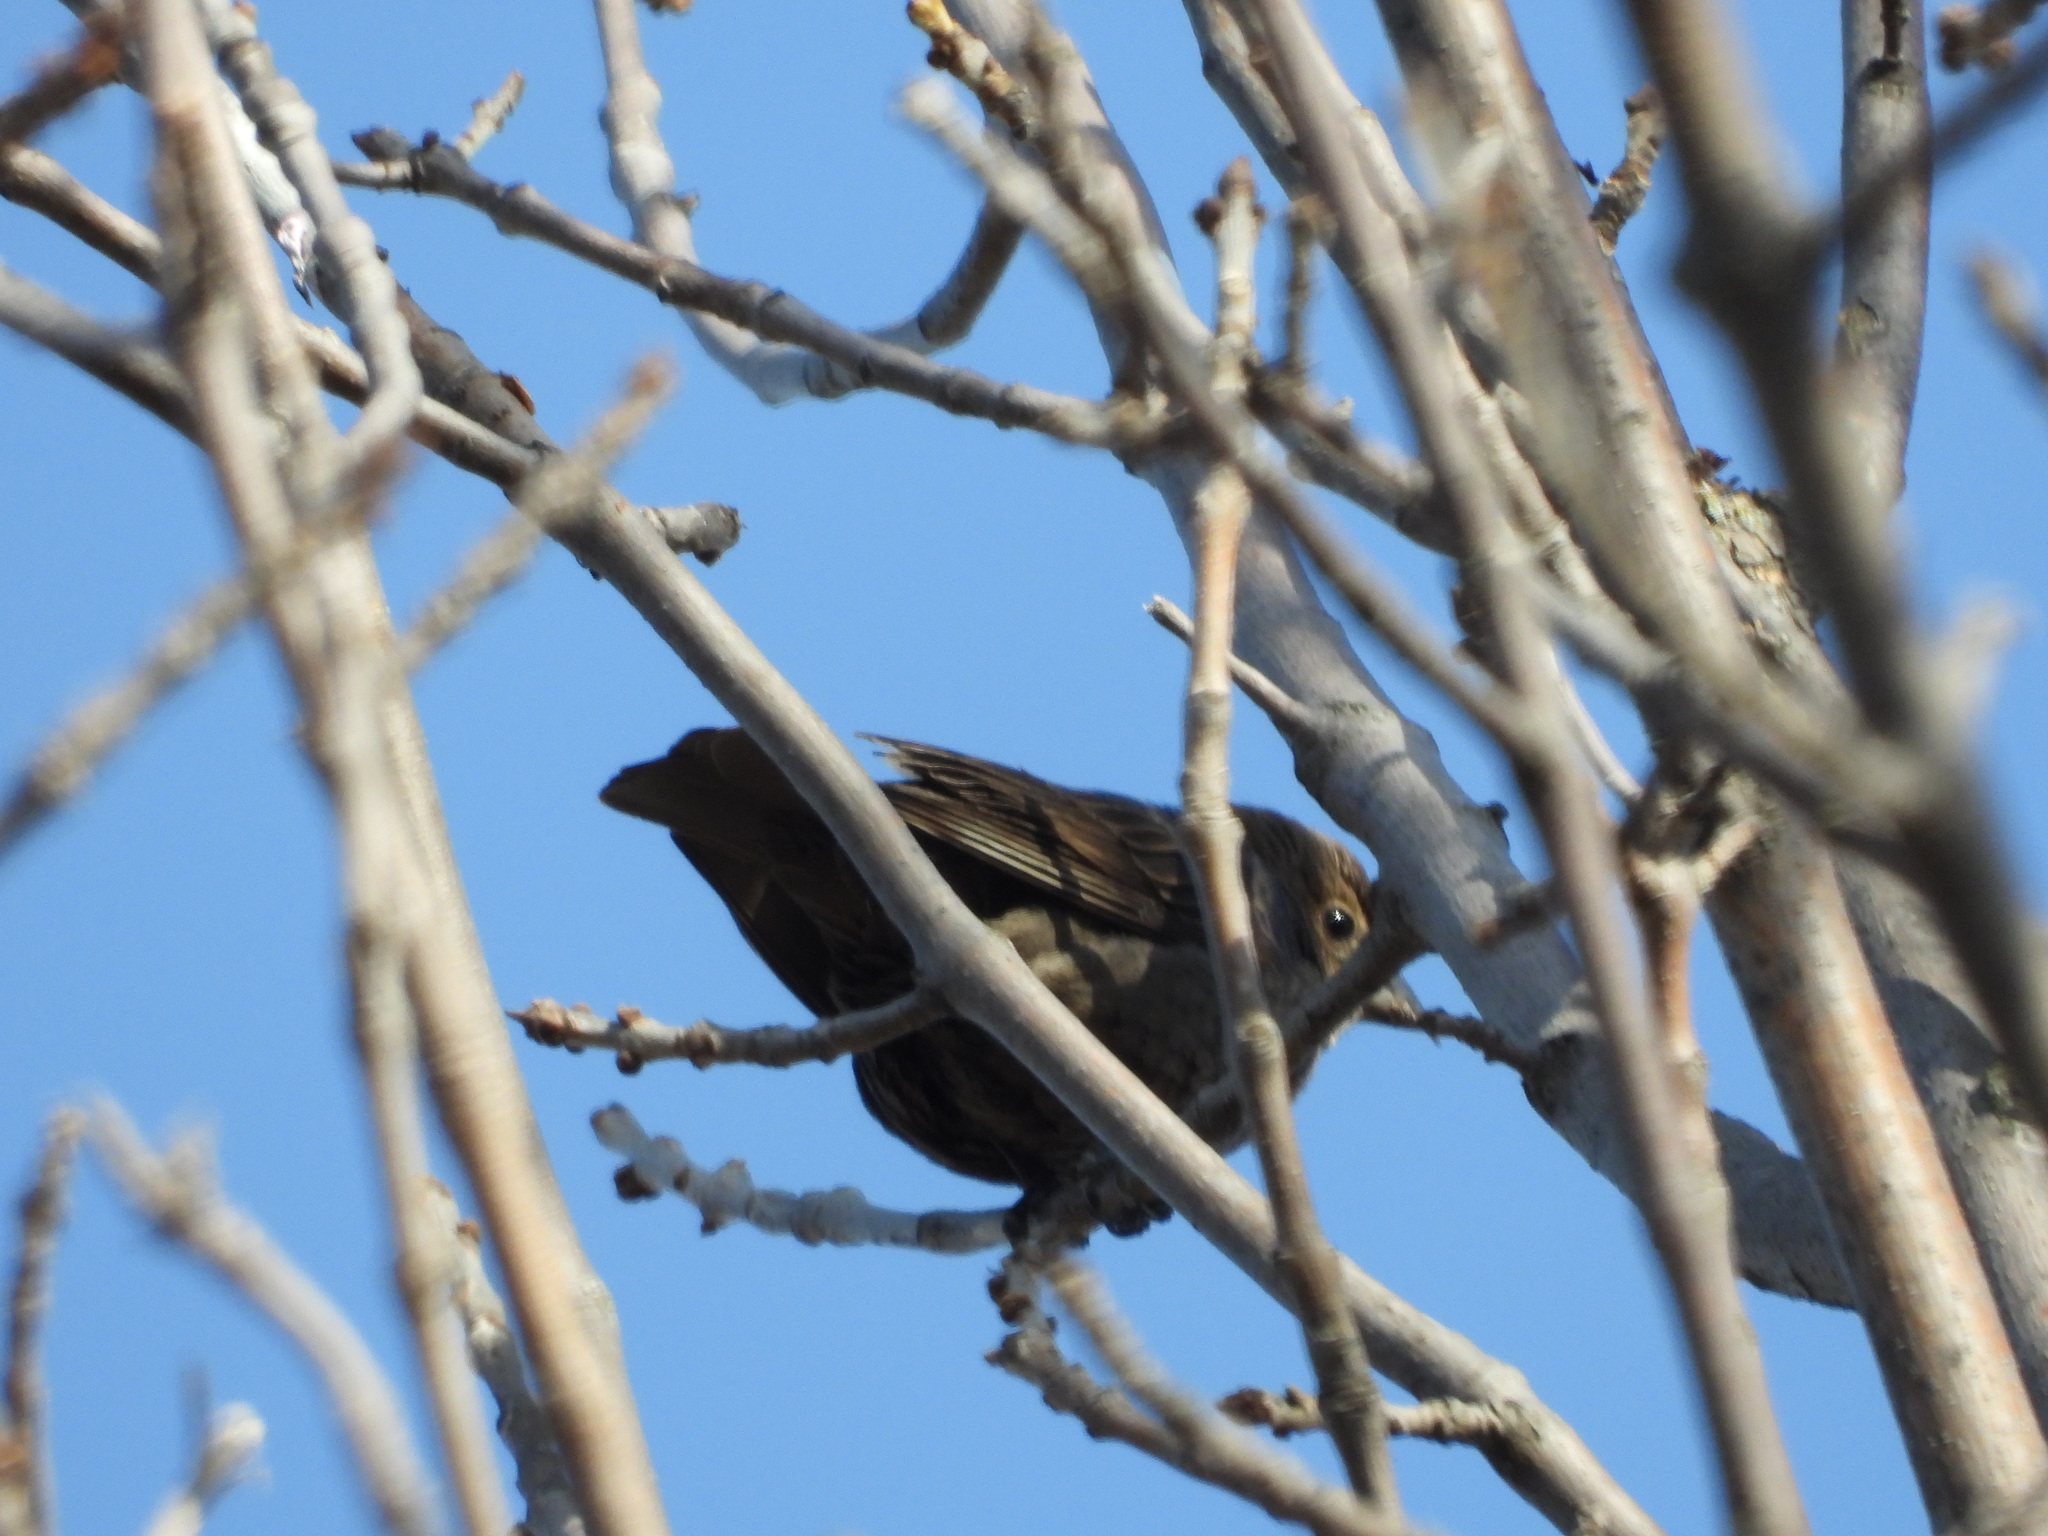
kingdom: Animalia
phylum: Chordata
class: Aves
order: Passeriformes
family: Passeridae
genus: Passer
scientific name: Passer domesticus
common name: House sparrow
